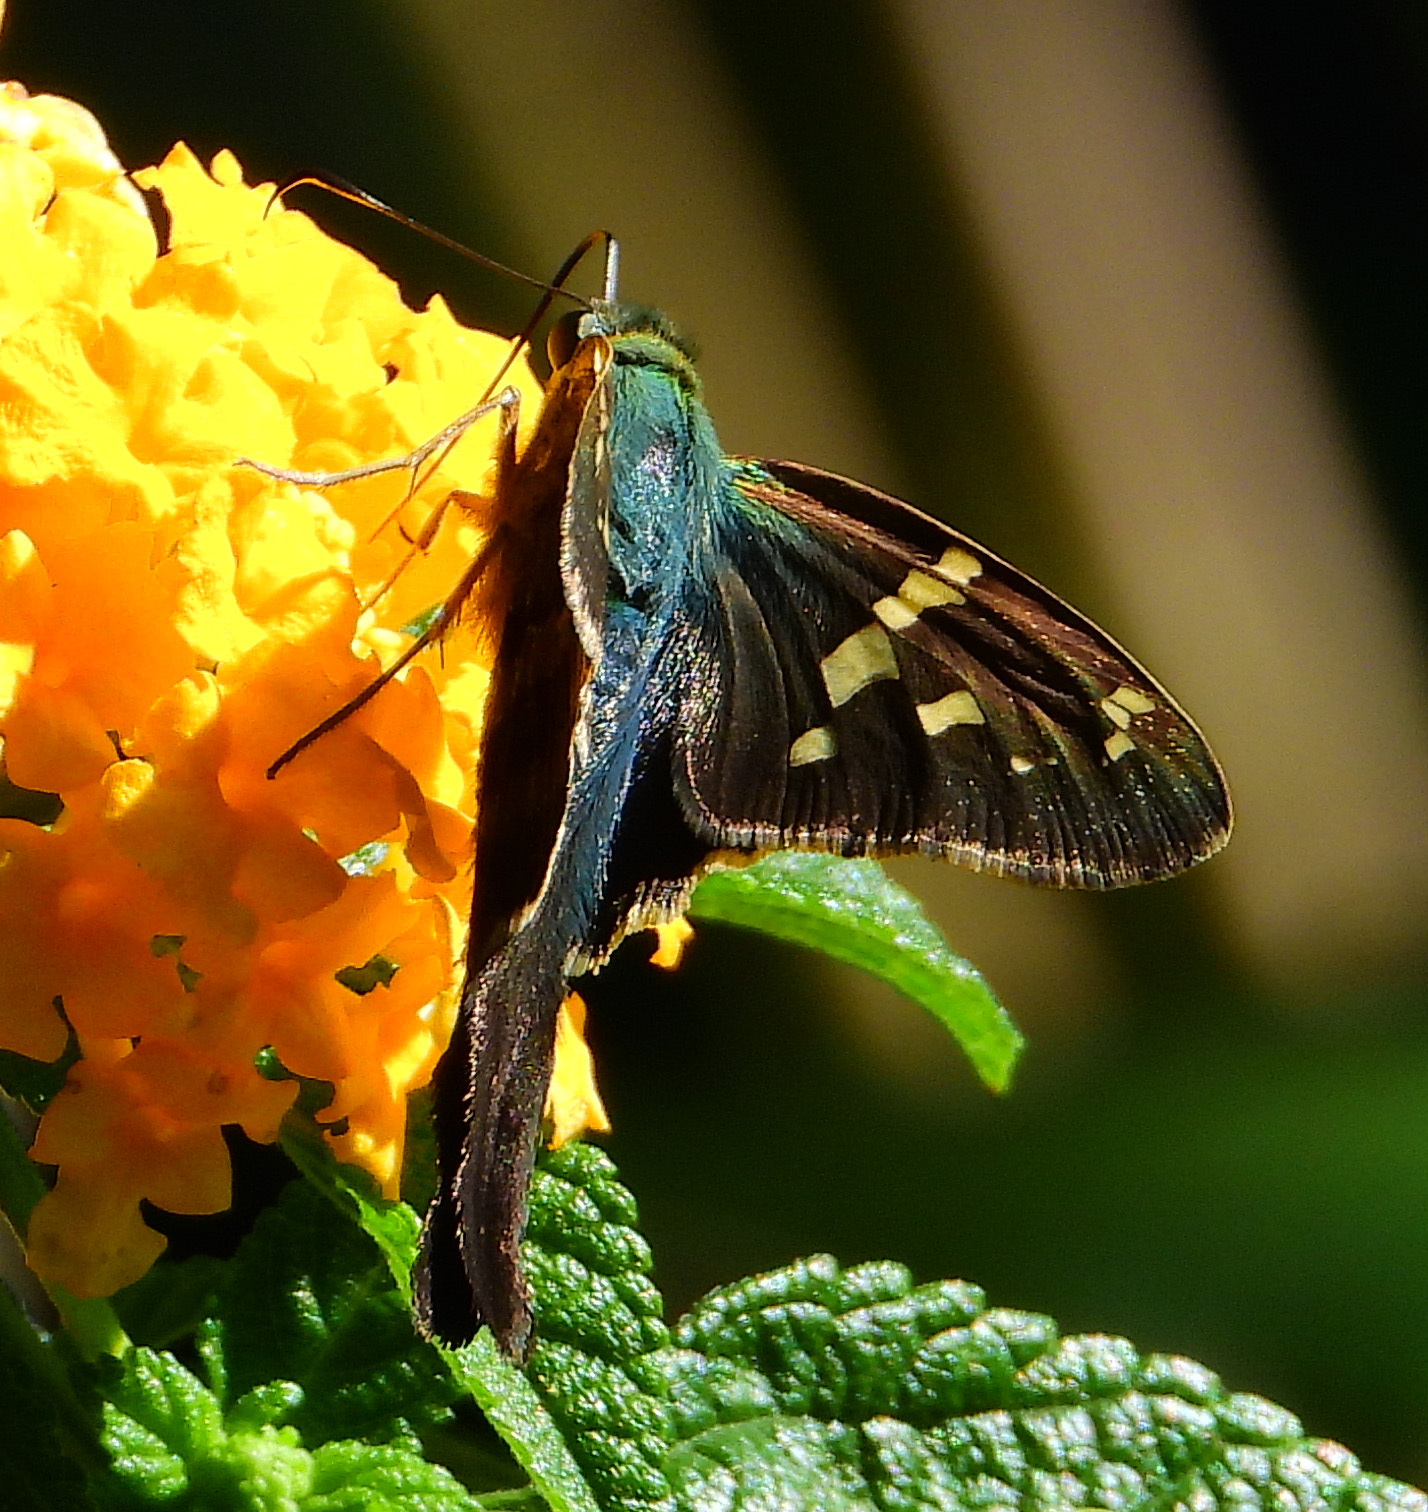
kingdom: Animalia
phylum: Arthropoda
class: Insecta
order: Lepidoptera
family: Hesperiidae
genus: Urbanus
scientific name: Urbanus proteus
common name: Long-tailed skipper
